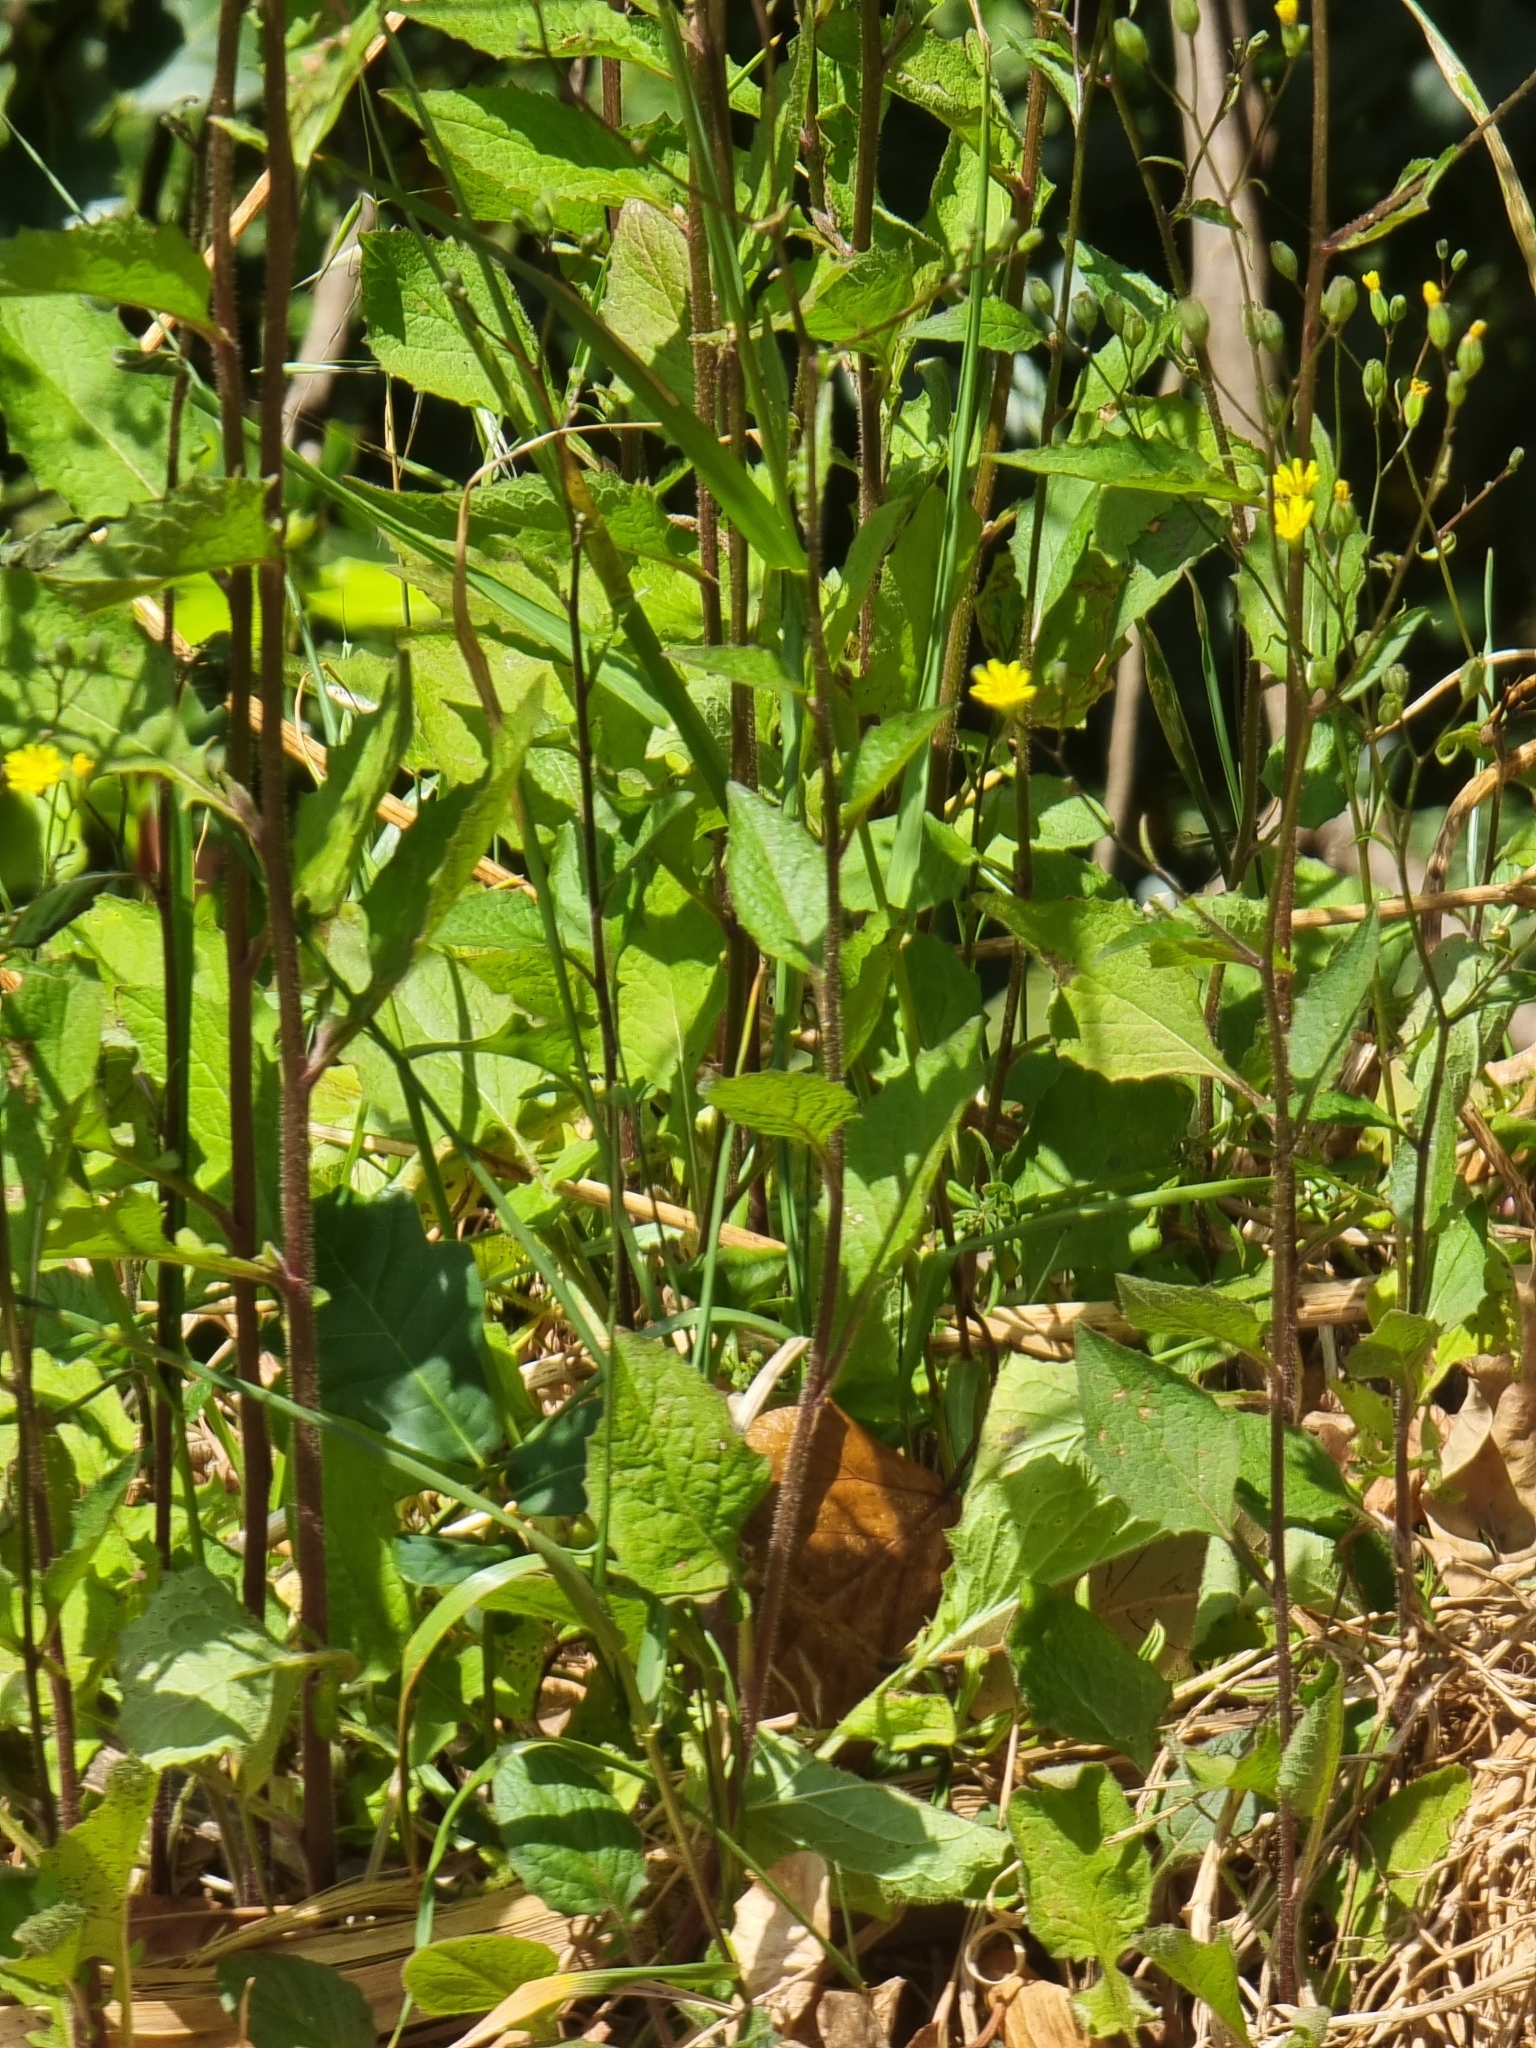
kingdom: Plantae
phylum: Tracheophyta
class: Magnoliopsida
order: Asterales
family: Asteraceae
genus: Lapsana
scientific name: Lapsana communis
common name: Nipplewort
